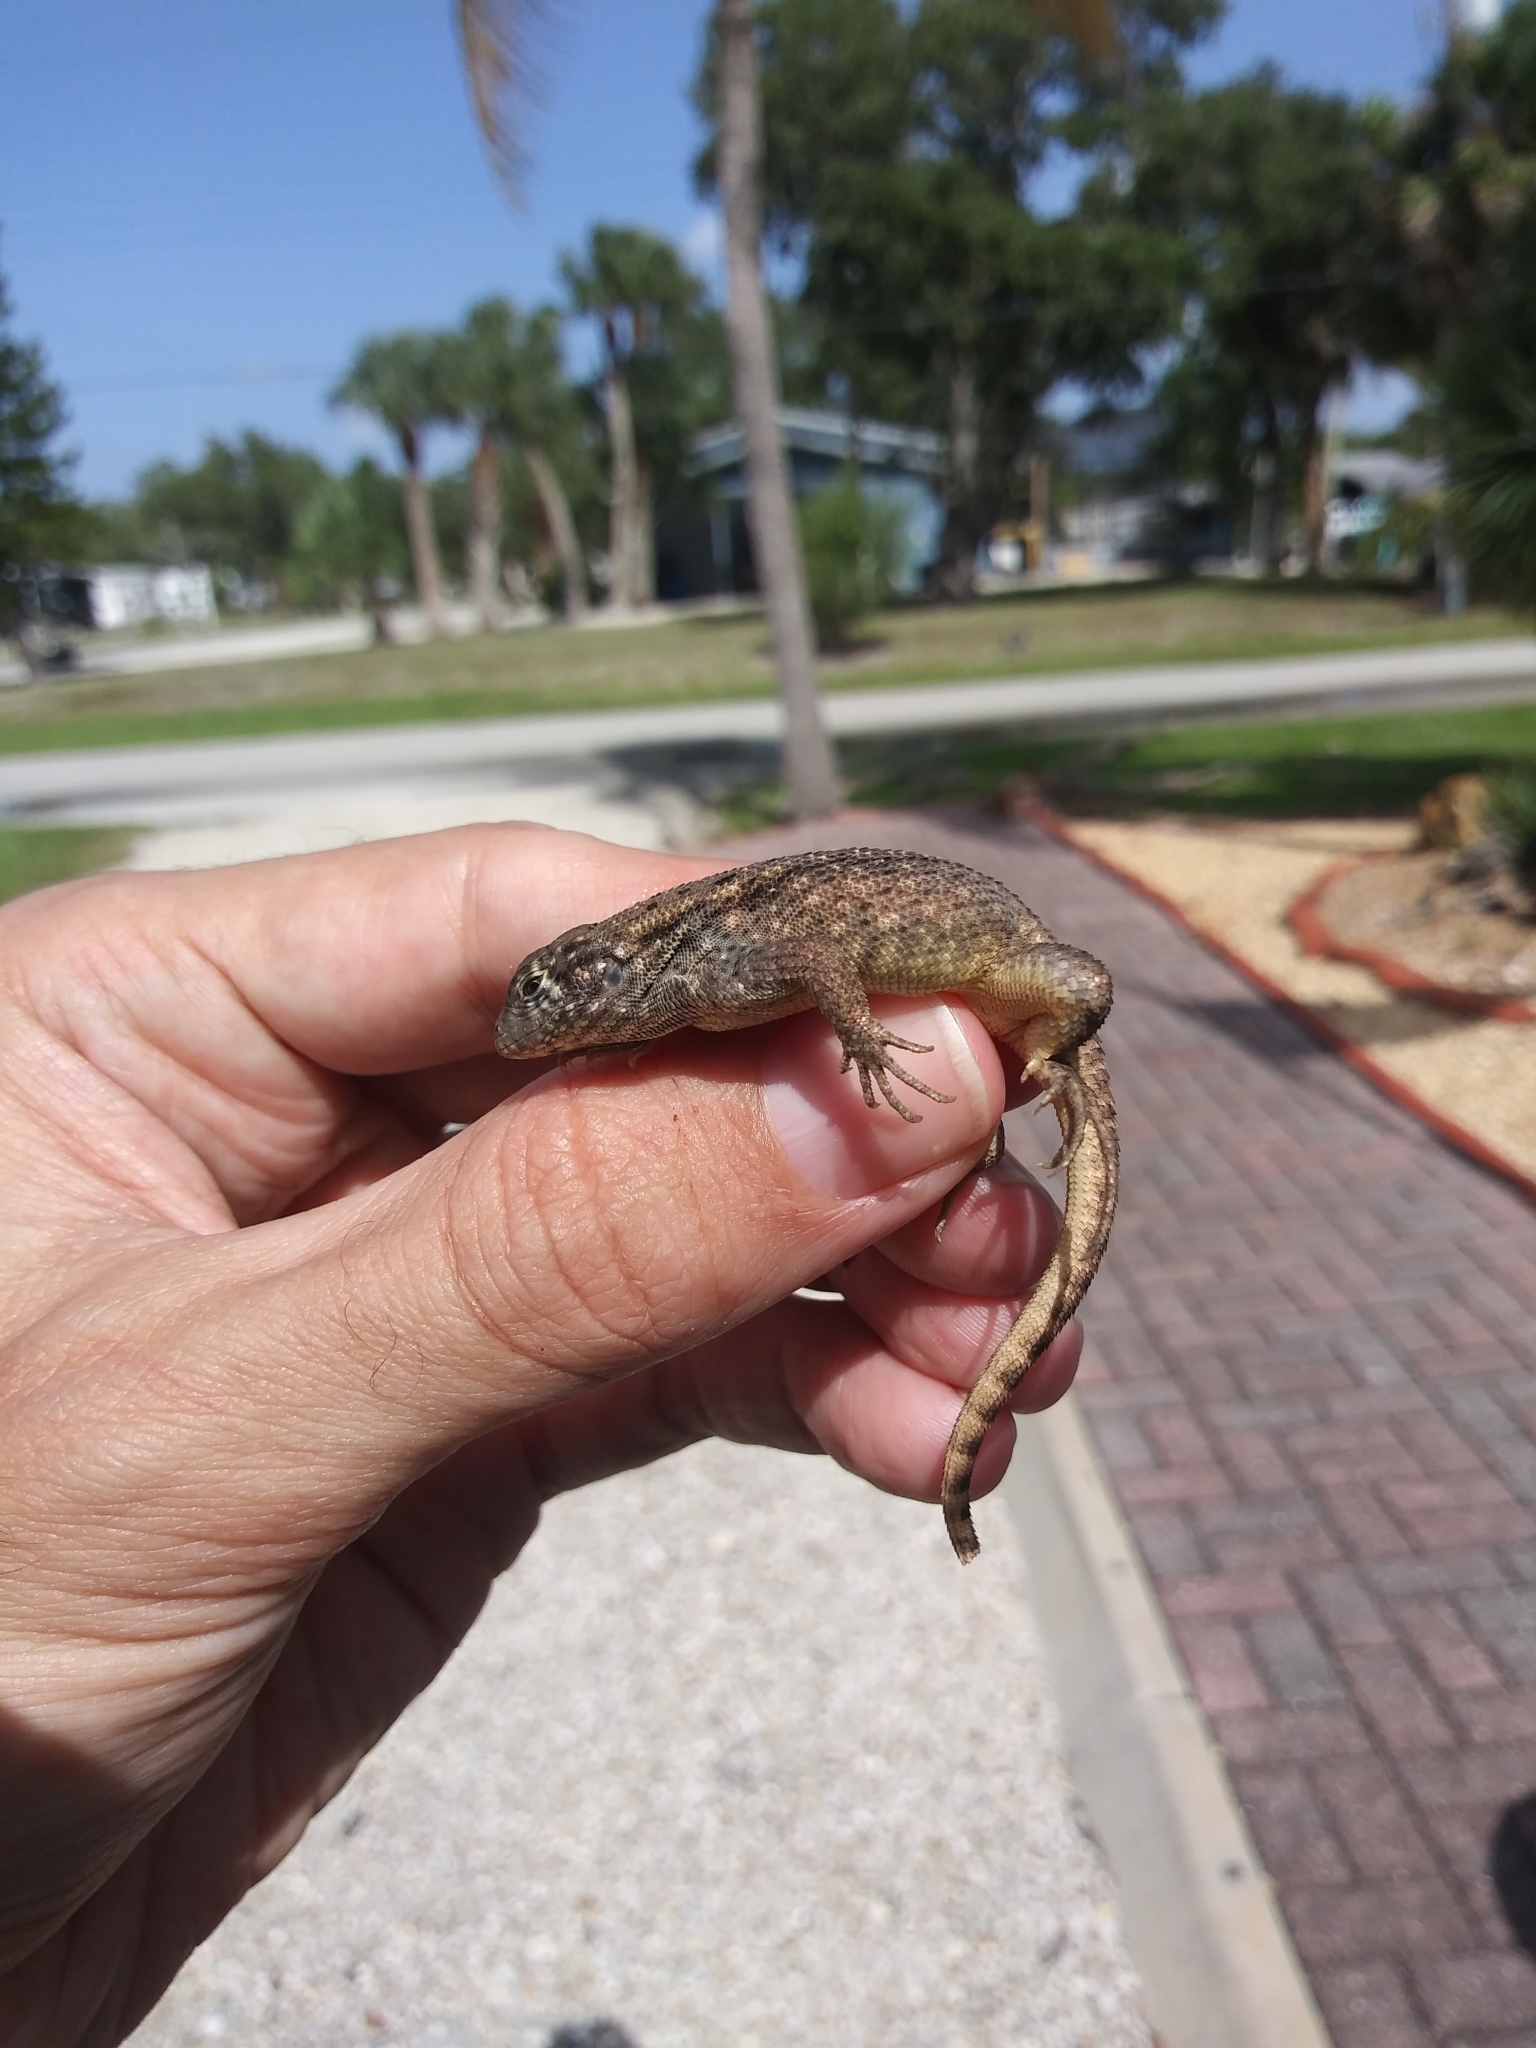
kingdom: Animalia
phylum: Chordata
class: Squamata
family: Leiocephalidae
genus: Leiocephalus
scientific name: Leiocephalus carinatus
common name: Northern curly-tailed lizard
